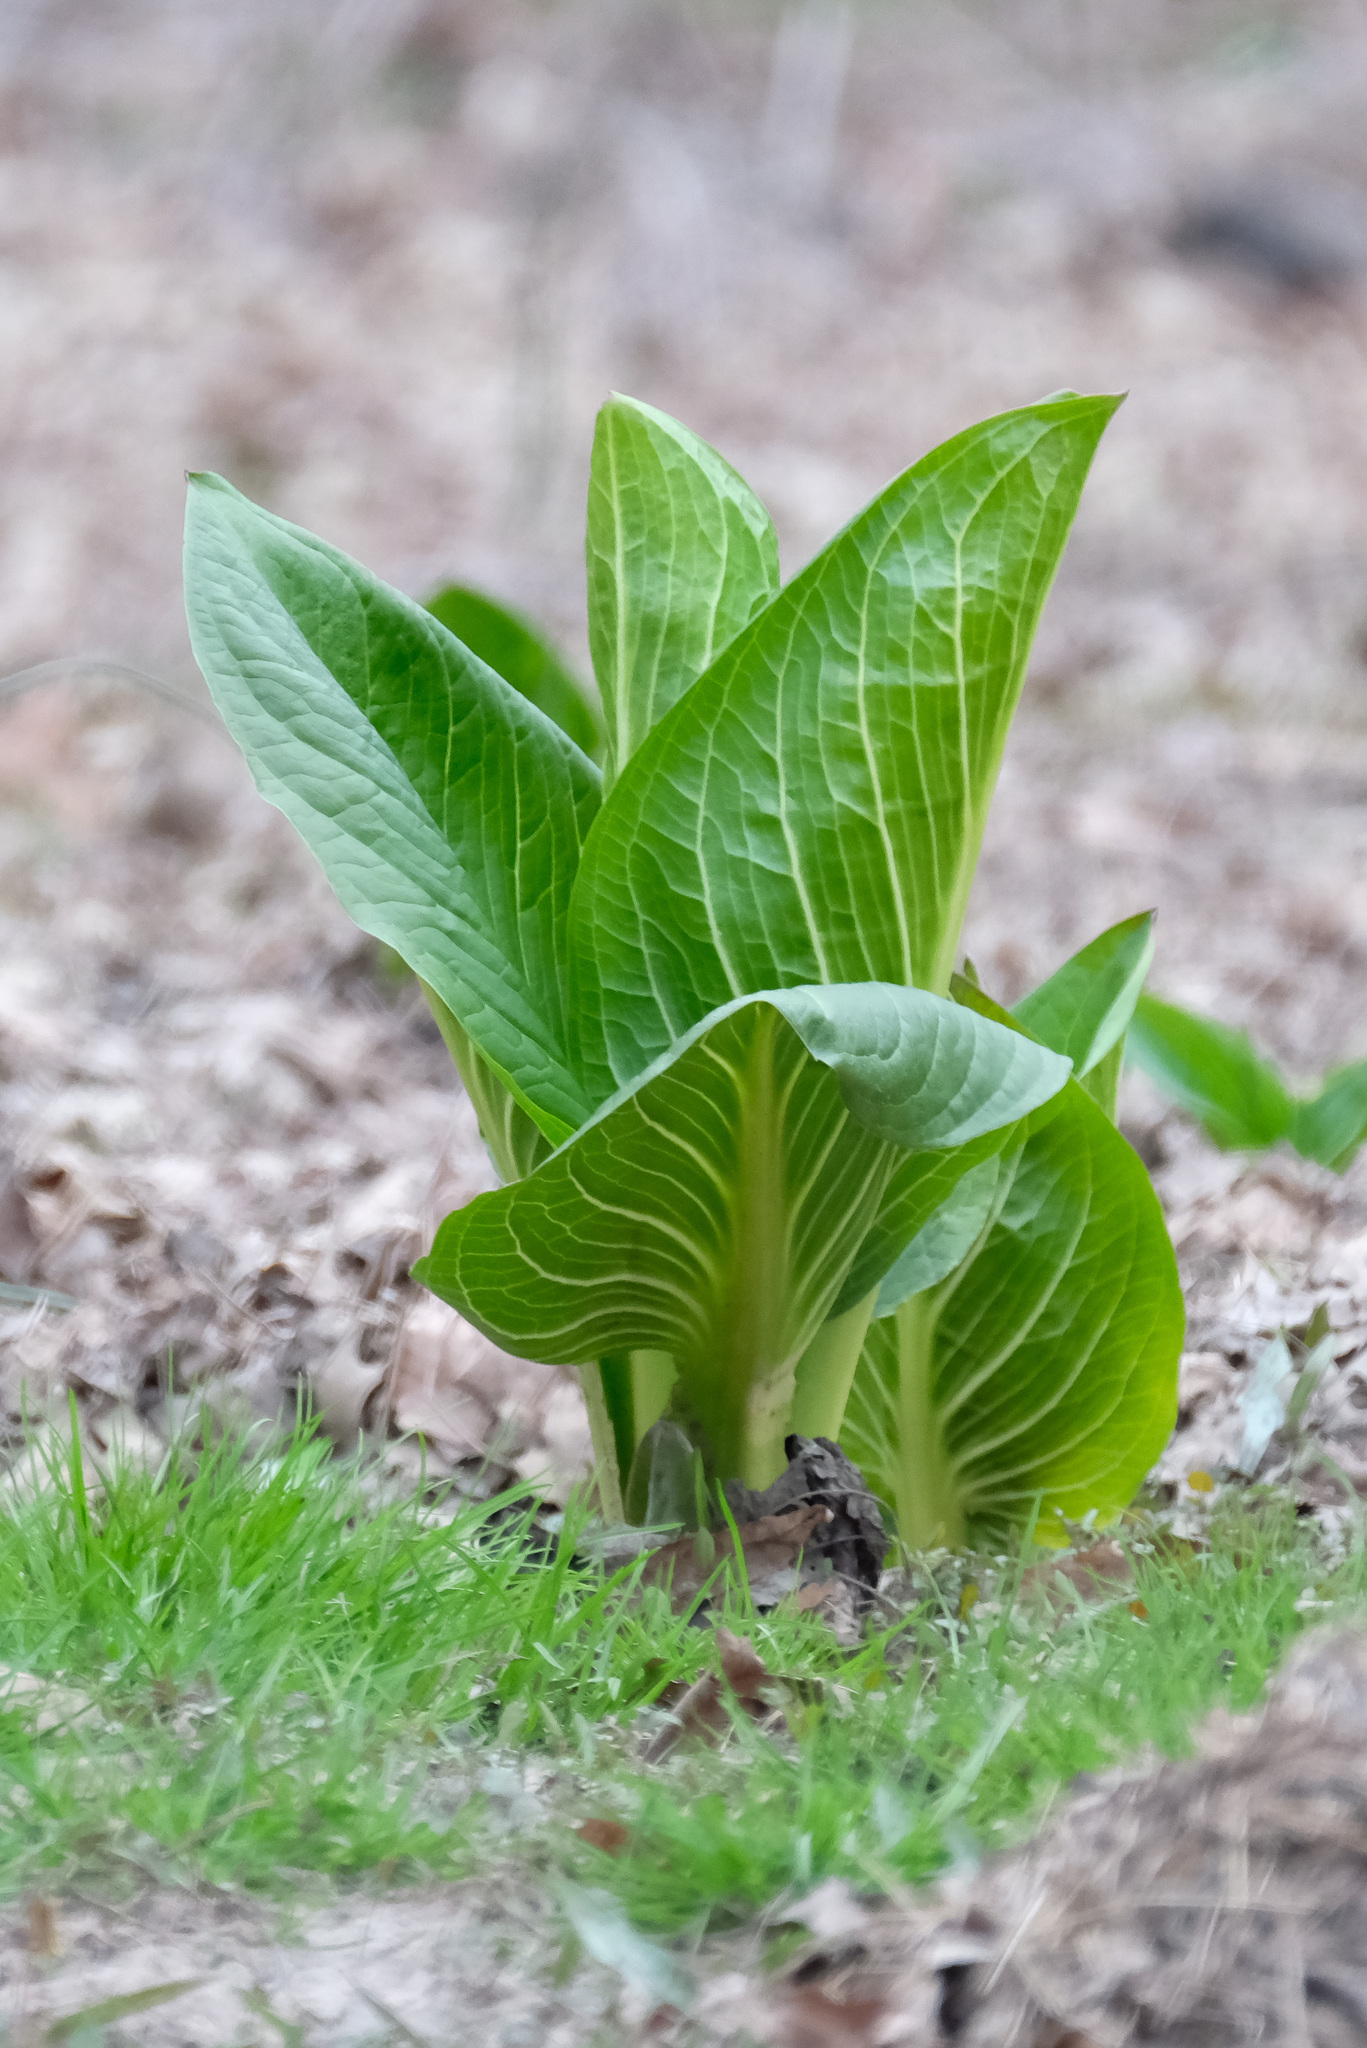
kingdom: Plantae
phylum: Tracheophyta
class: Liliopsida
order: Alismatales
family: Araceae
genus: Symplocarpus
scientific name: Symplocarpus foetidus
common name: Eastern skunk cabbage
